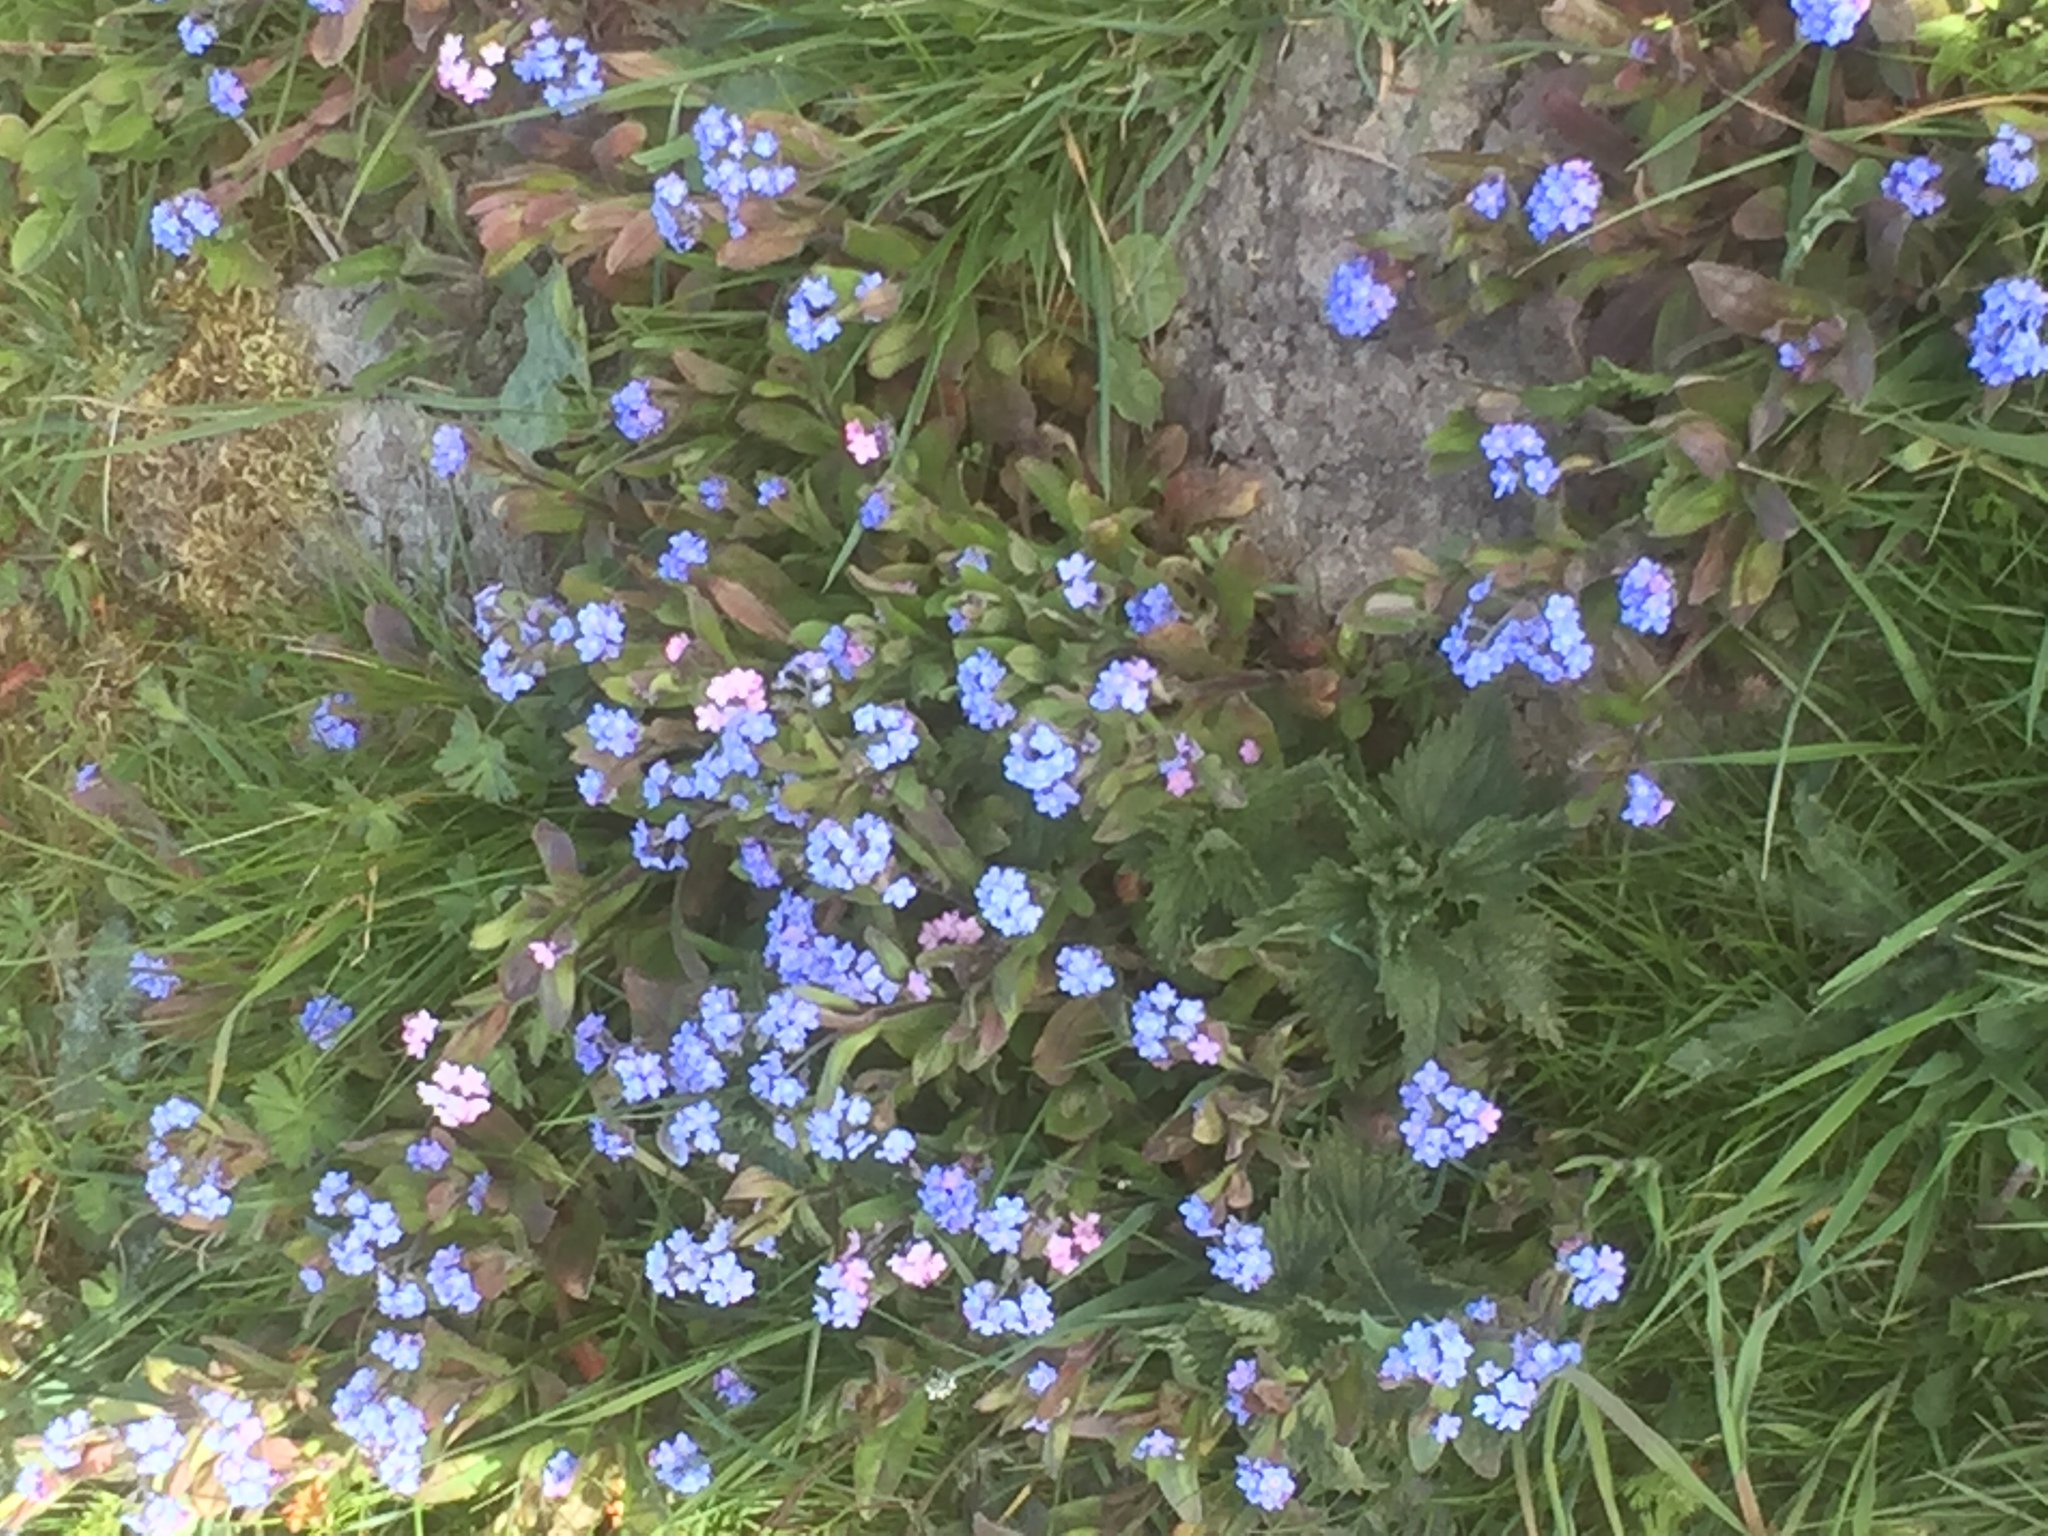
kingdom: Plantae
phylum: Tracheophyta
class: Magnoliopsida
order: Boraginales
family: Boraginaceae
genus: Myosotis
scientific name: Myosotis sylvatica
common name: Wood forget-me-not
